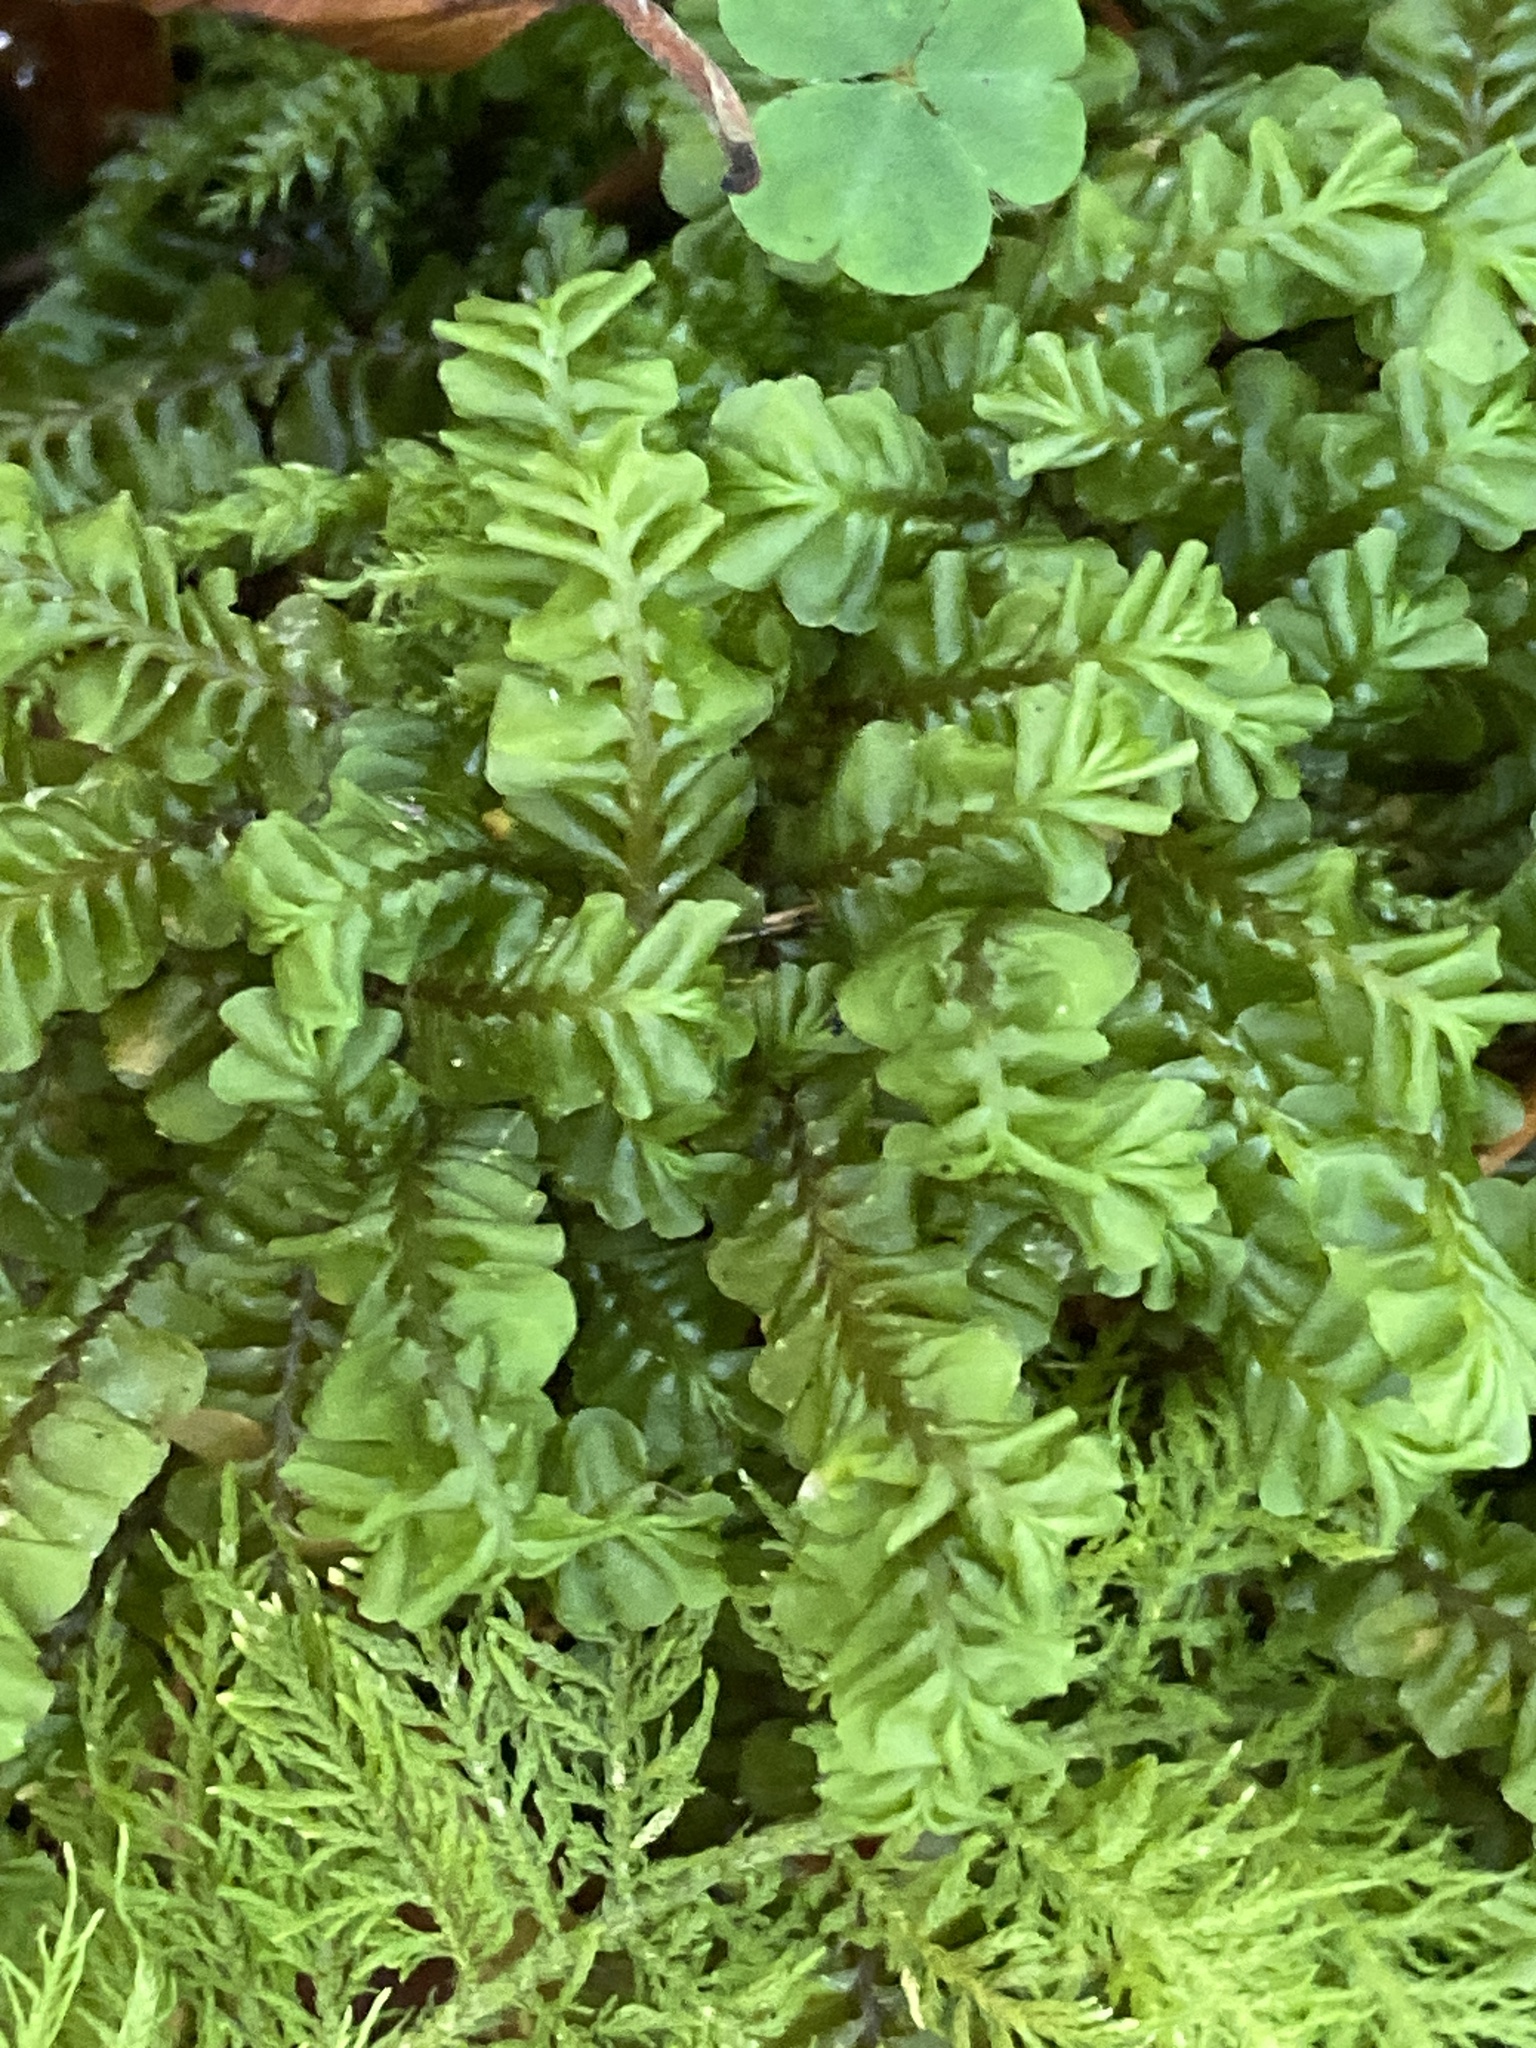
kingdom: Plantae
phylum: Marchantiophyta
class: Jungermanniopsida
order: Jungermanniales
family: Plagiochilaceae
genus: Plagiochila
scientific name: Plagiochila asplenioides
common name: Greater featherwort
